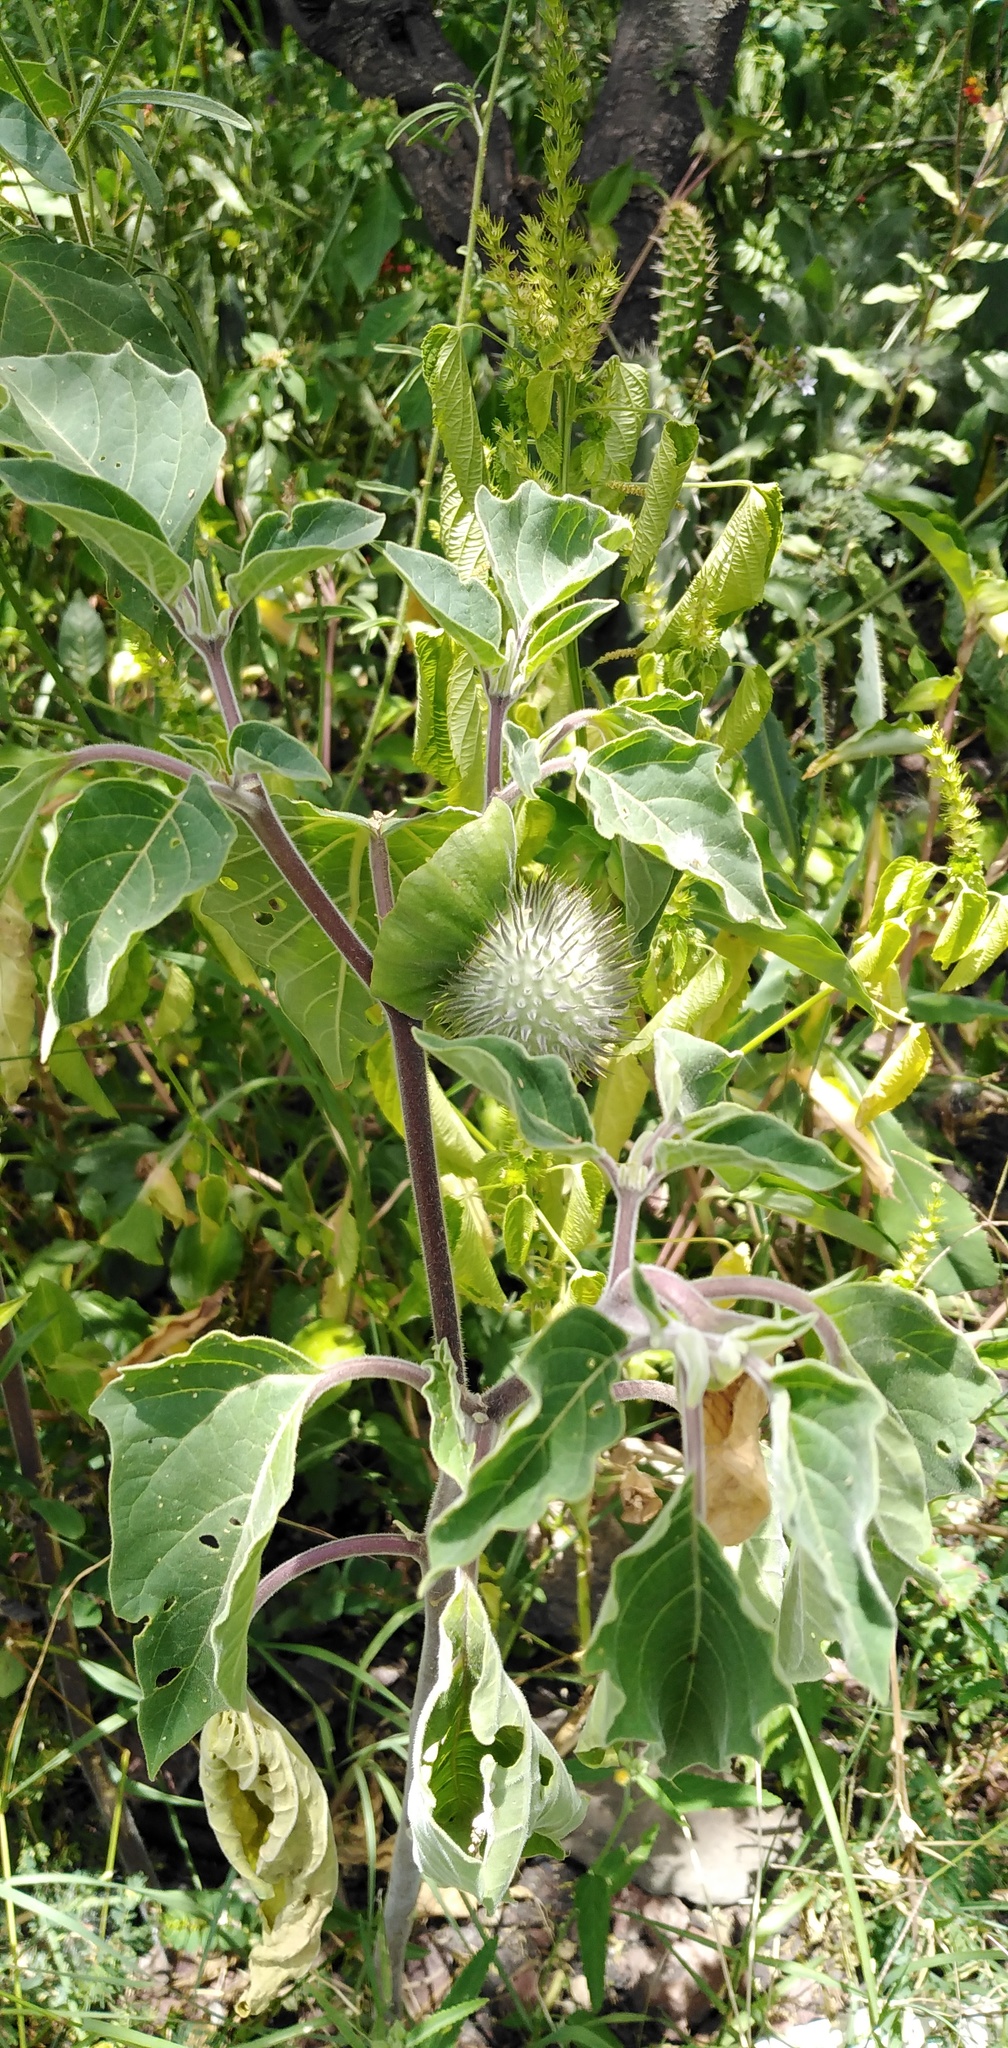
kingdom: Plantae
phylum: Tracheophyta
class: Magnoliopsida
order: Solanales
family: Solanaceae
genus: Datura
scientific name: Datura innoxia
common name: Downy thorn-apple
